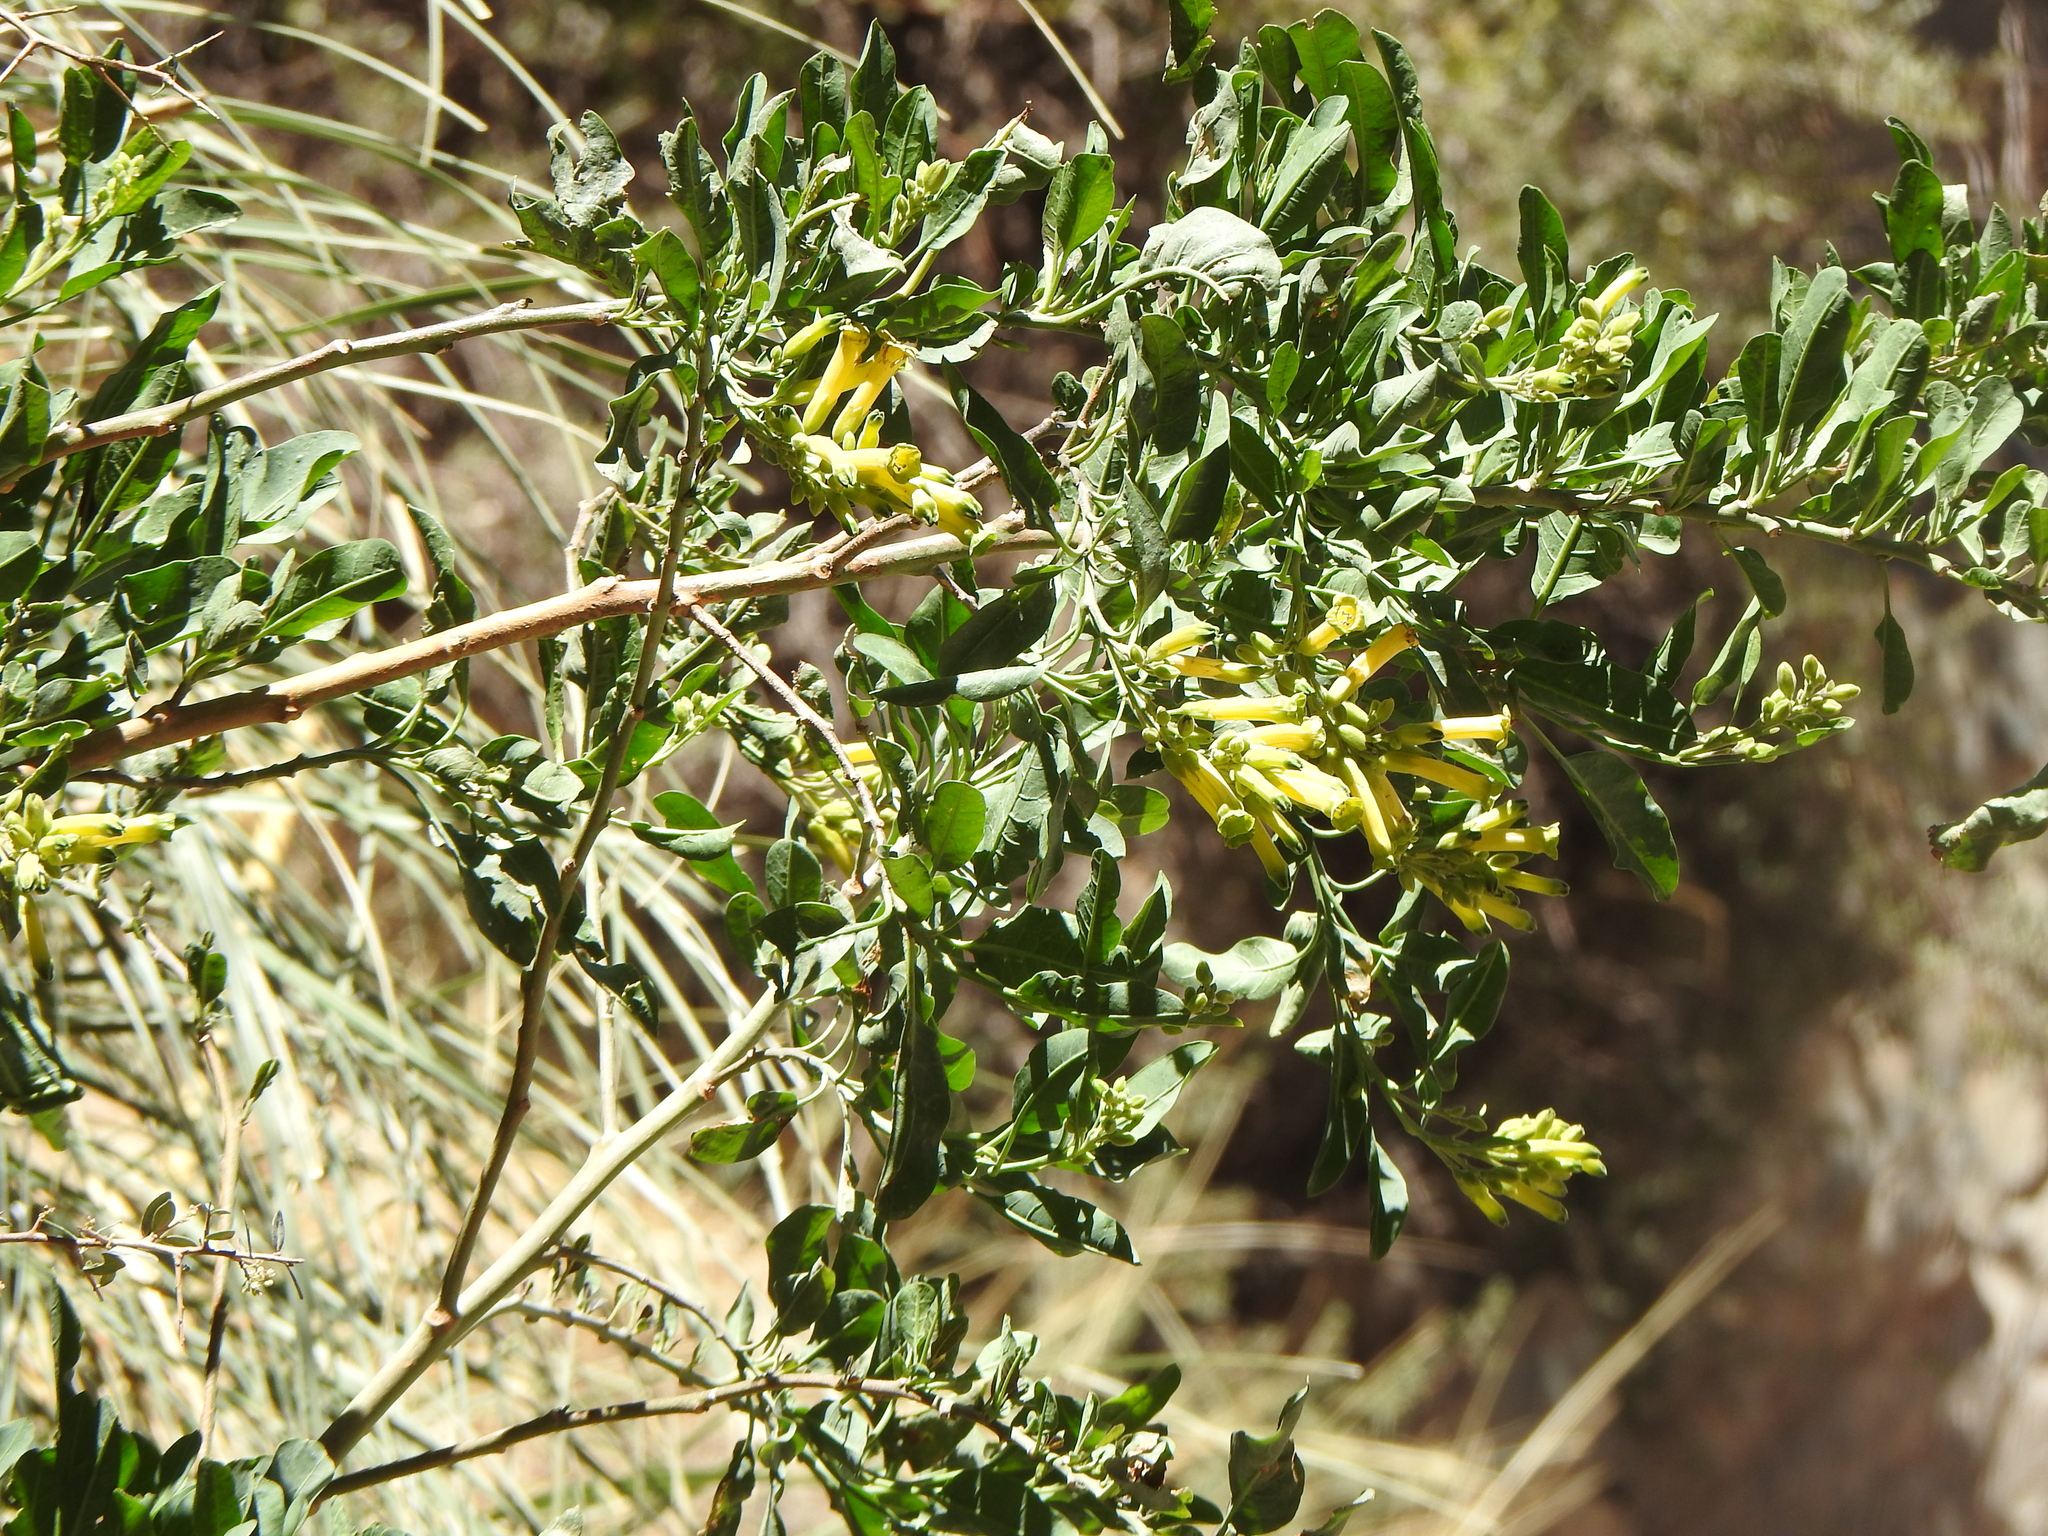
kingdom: Plantae
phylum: Tracheophyta
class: Magnoliopsida
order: Solanales
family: Solanaceae
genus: Nicotiana
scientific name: Nicotiana glauca
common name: Tree tobacco
